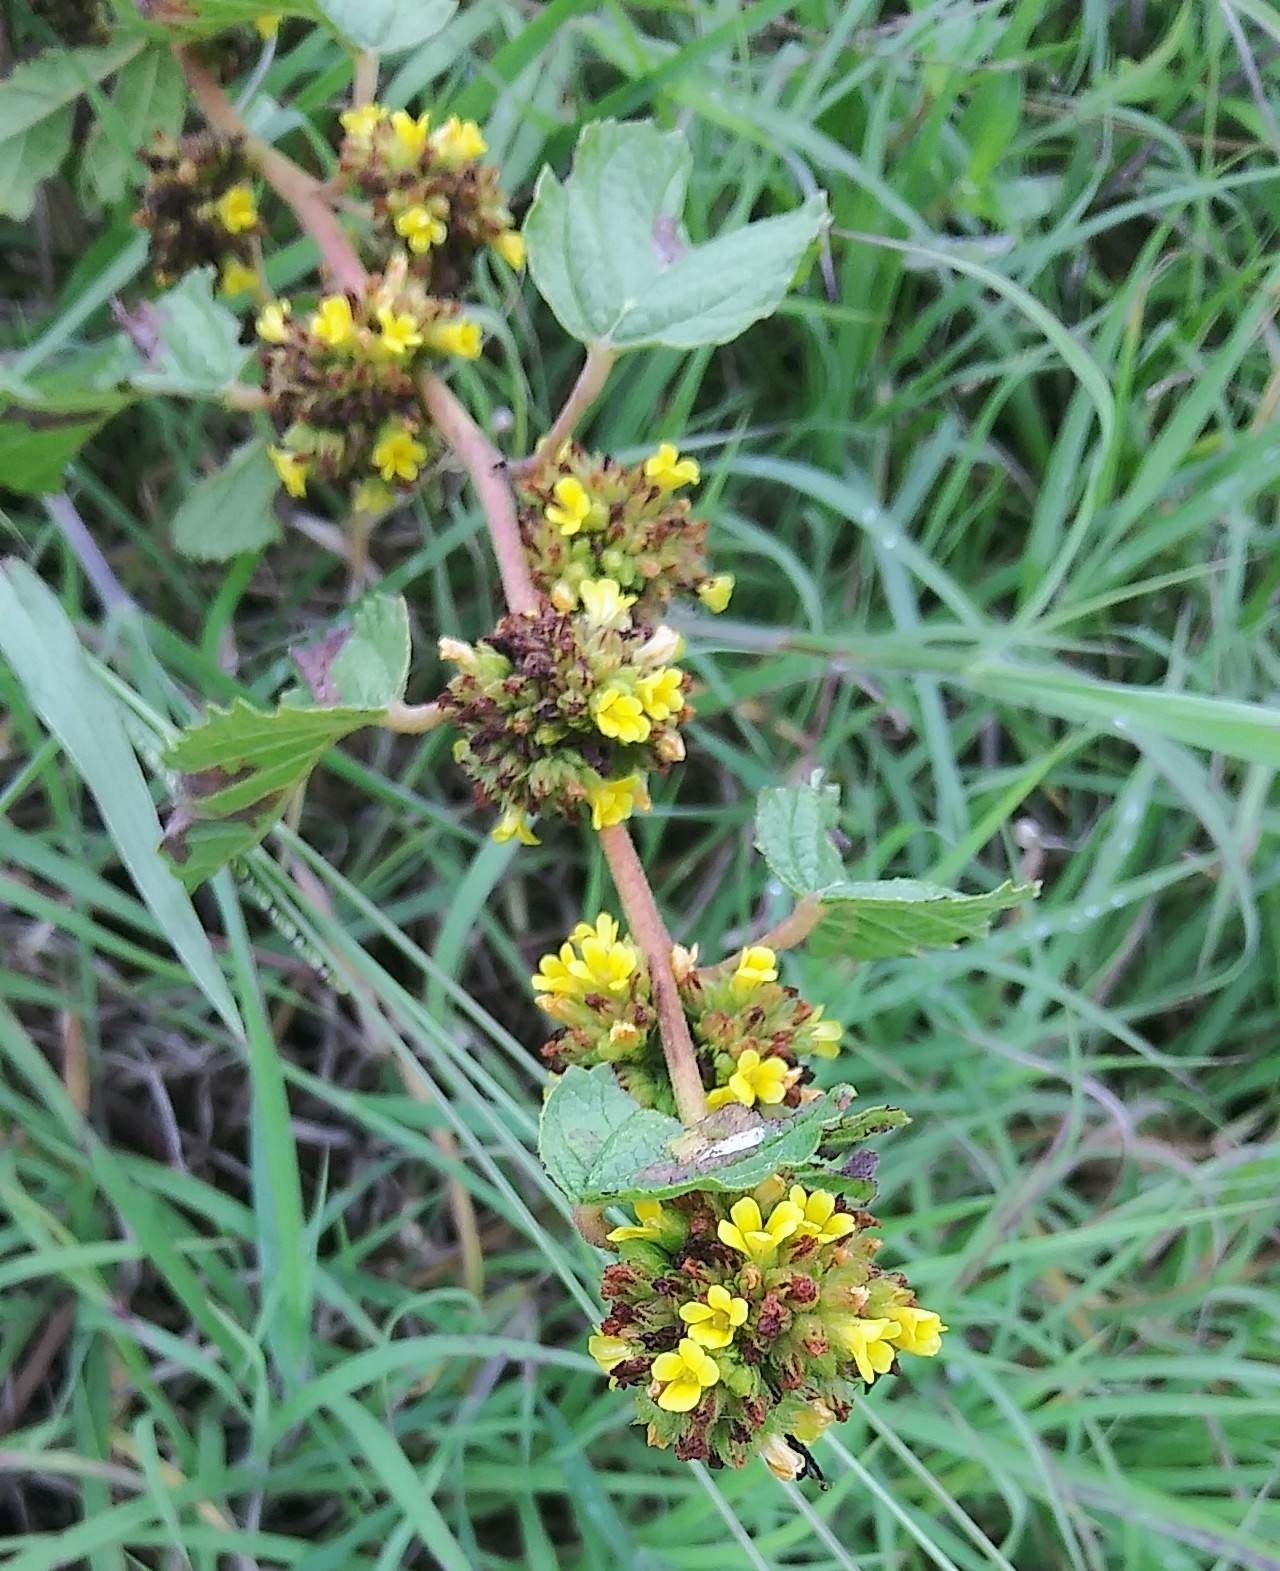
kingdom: Plantae
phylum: Tracheophyta
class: Magnoliopsida
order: Malvales
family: Malvaceae
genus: Waltheria
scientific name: Waltheria indica
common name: Leather-coat
